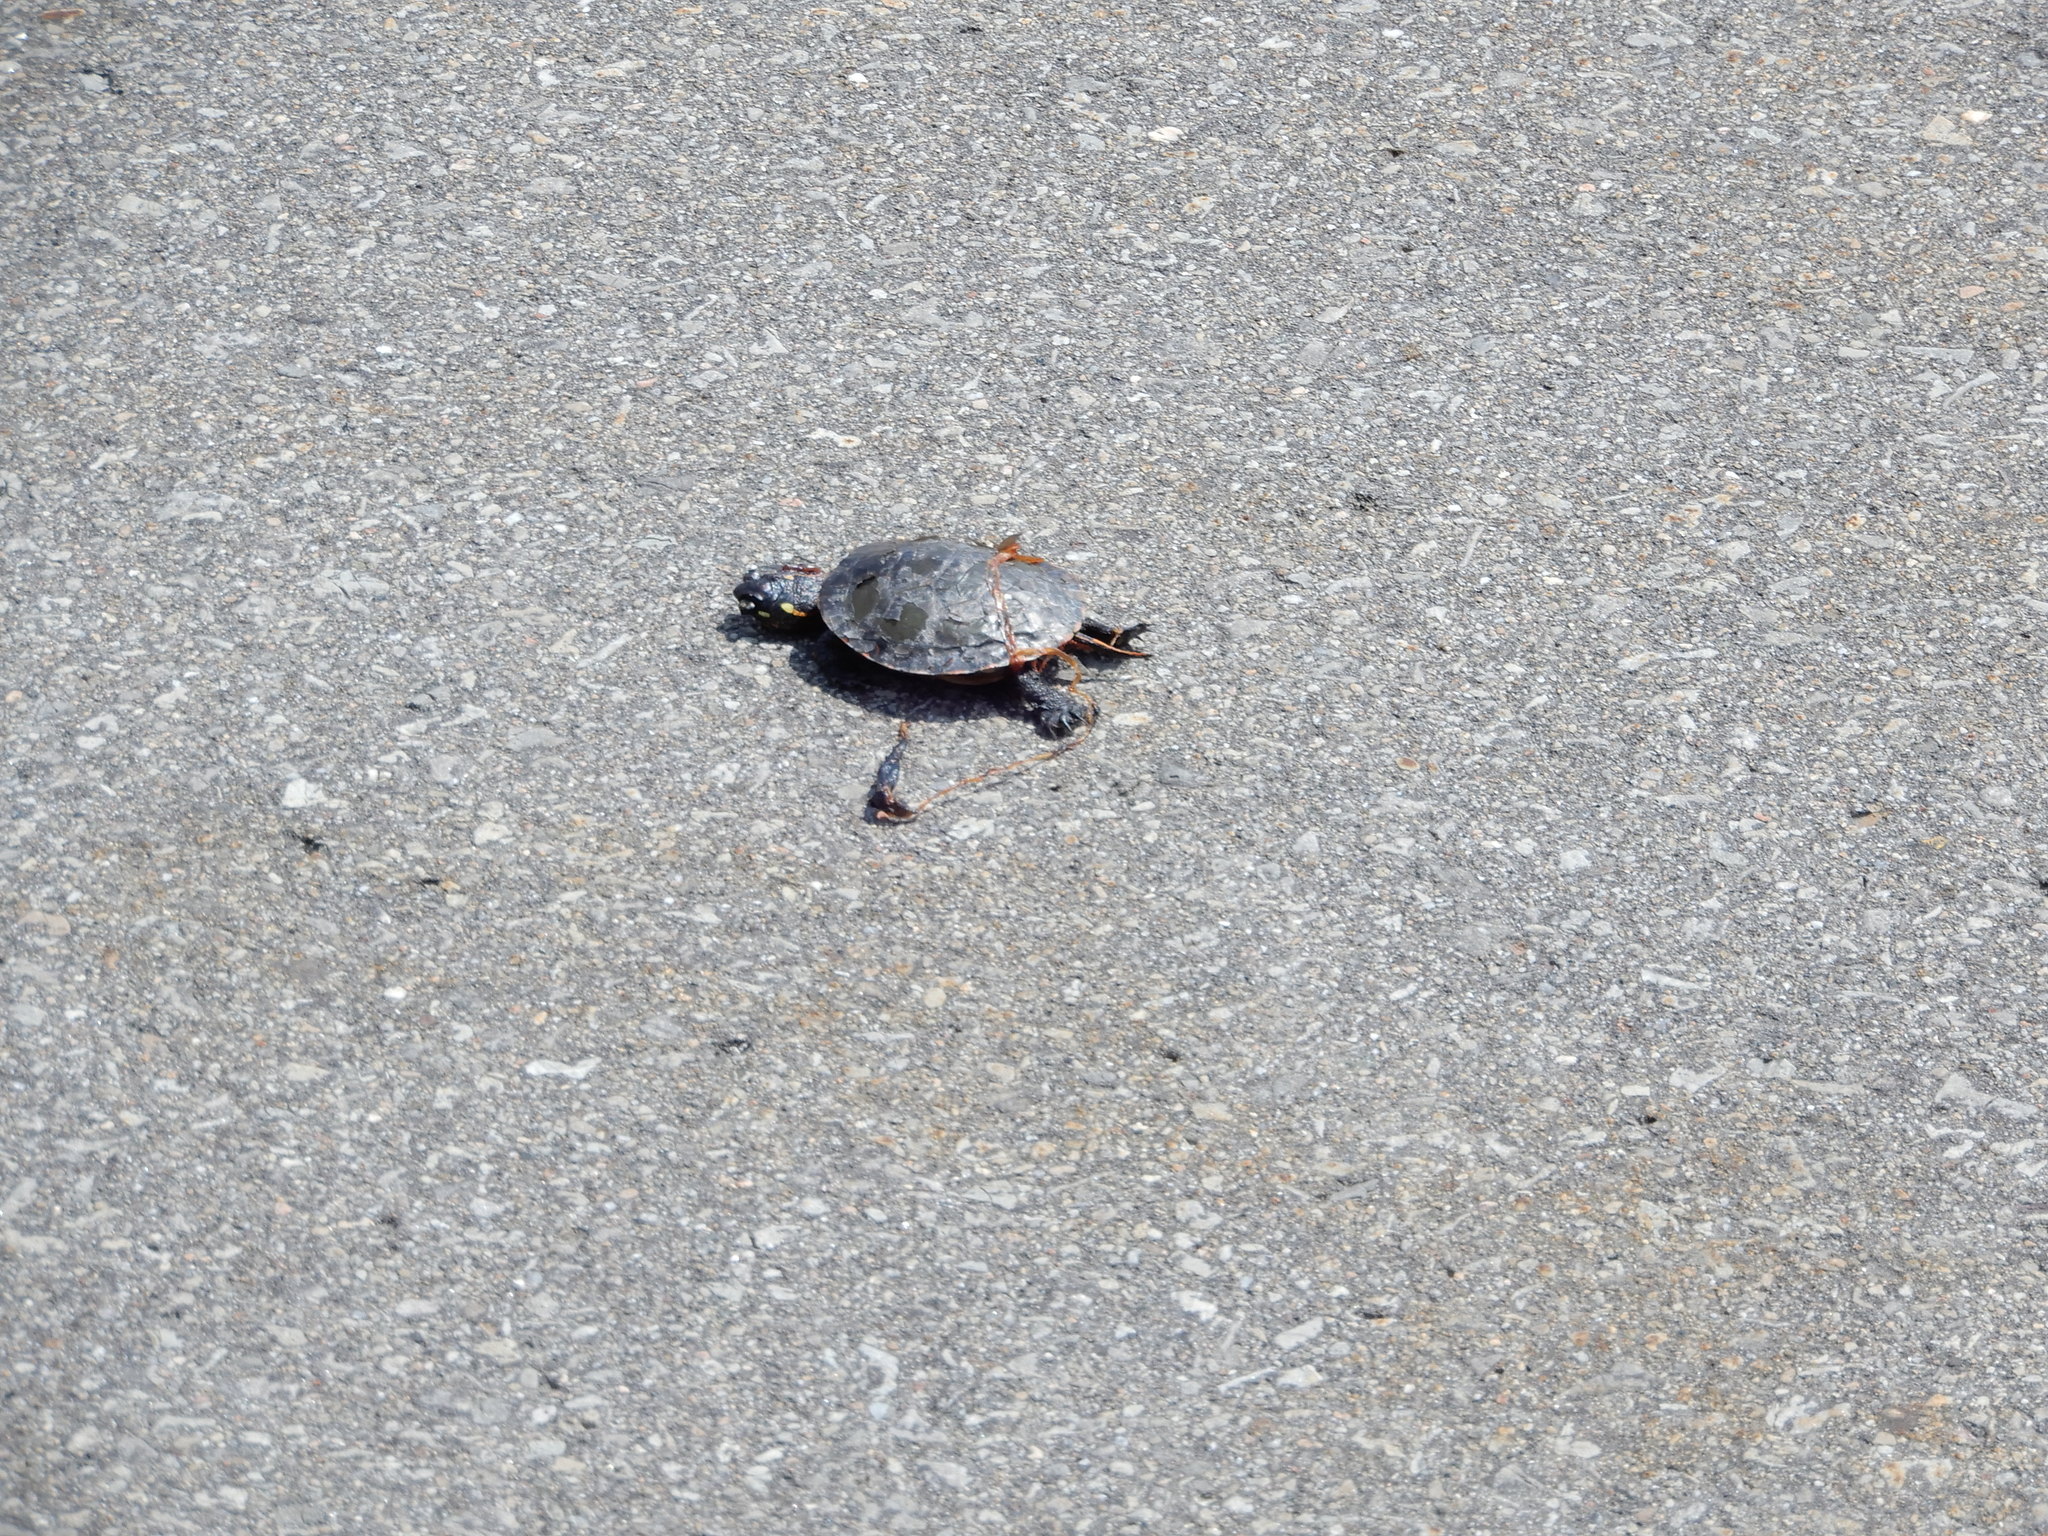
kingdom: Animalia
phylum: Chordata
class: Testudines
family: Emydidae
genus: Chrysemys
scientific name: Chrysemys picta
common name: Painted turtle
